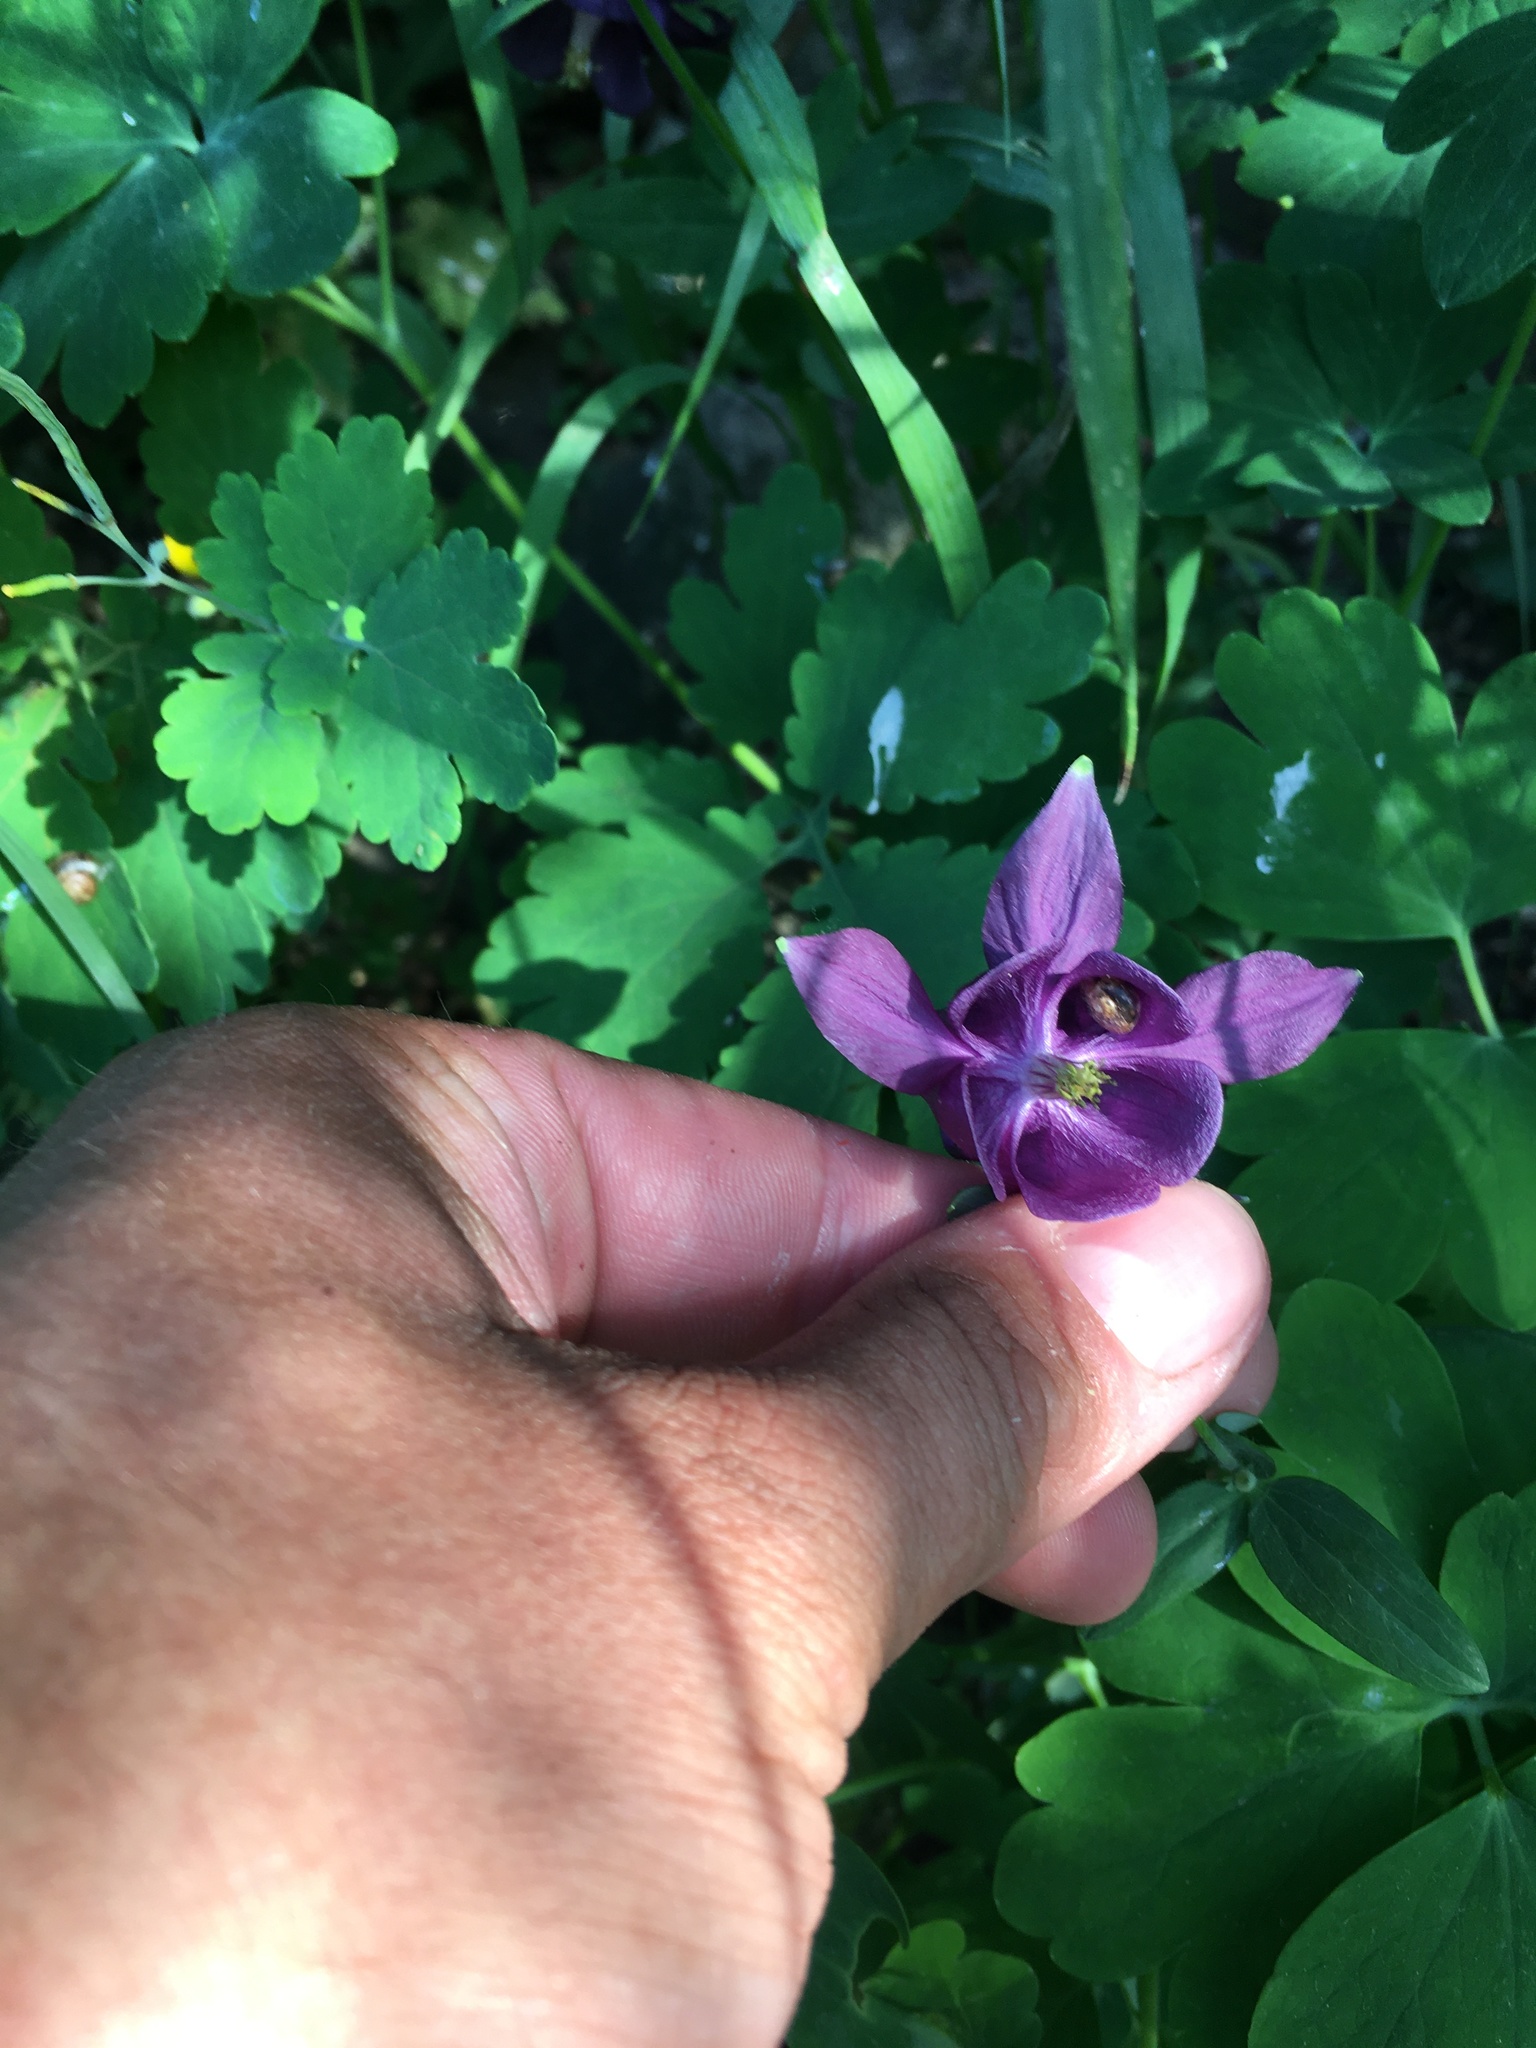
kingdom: Plantae
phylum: Tracheophyta
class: Magnoliopsida
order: Ranunculales
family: Ranunculaceae
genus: Aquilegia
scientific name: Aquilegia vulgaris
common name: Columbine
